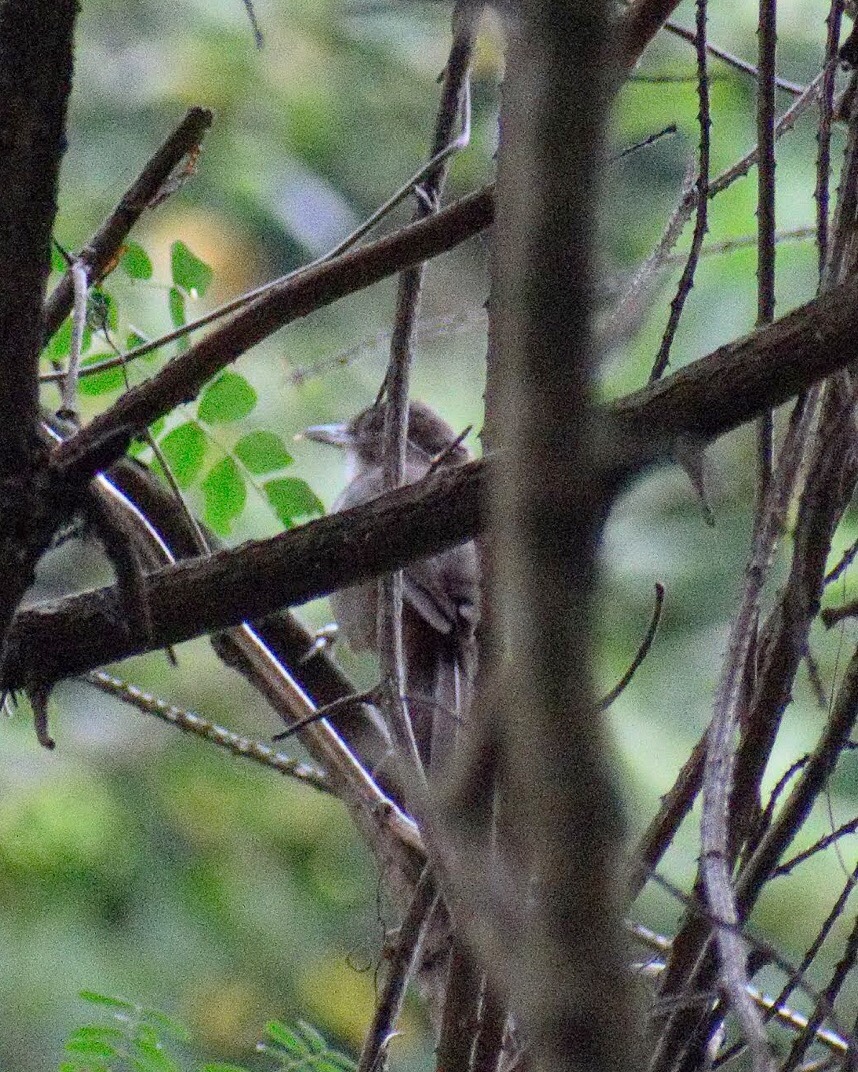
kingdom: Animalia
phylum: Chordata
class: Aves
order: Passeriformes
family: Pycnonotidae
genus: Phyllastrephus
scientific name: Phyllastrephus terrestris
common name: Terrestrial brownbul
